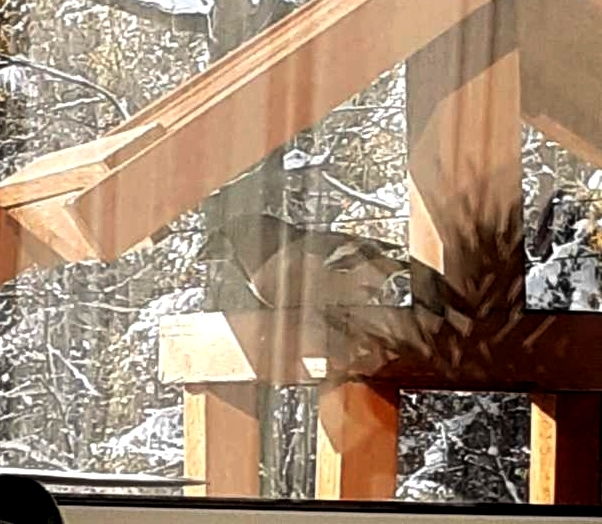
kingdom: Animalia
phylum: Chordata
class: Aves
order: Passeriformes
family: Fringillidae
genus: Coccothraustes
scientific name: Coccothraustes coccothraustes
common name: Hawfinch
